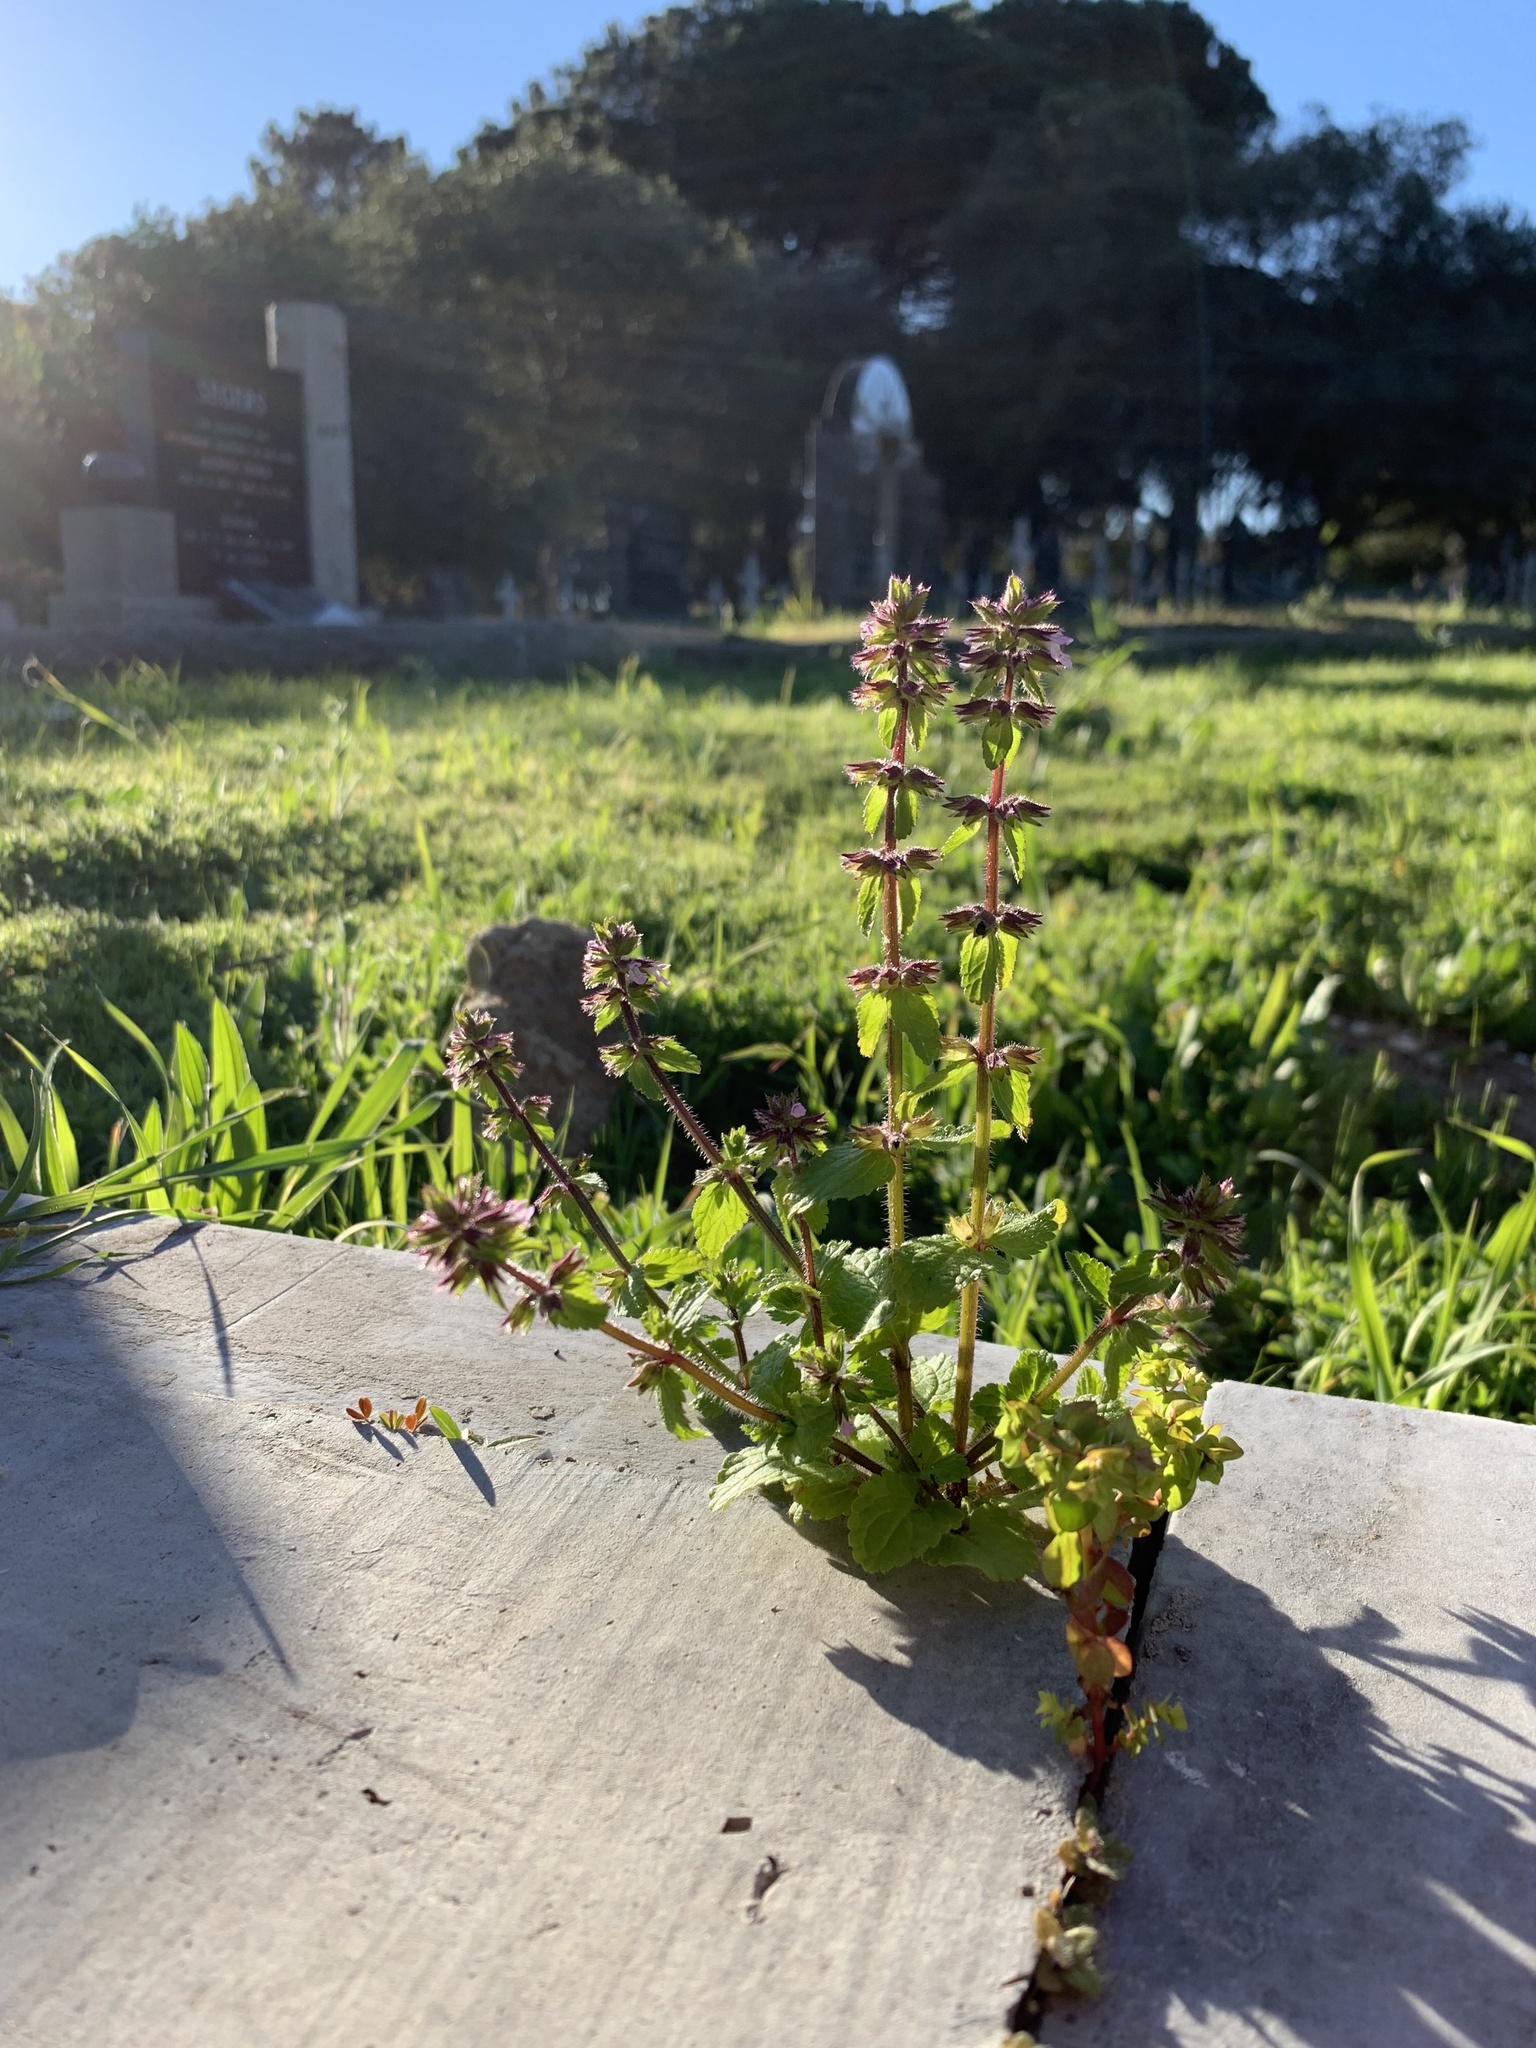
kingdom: Plantae
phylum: Tracheophyta
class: Magnoliopsida
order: Lamiales
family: Lamiaceae
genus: Stachys
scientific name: Stachys arvensis
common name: Field woundwort
